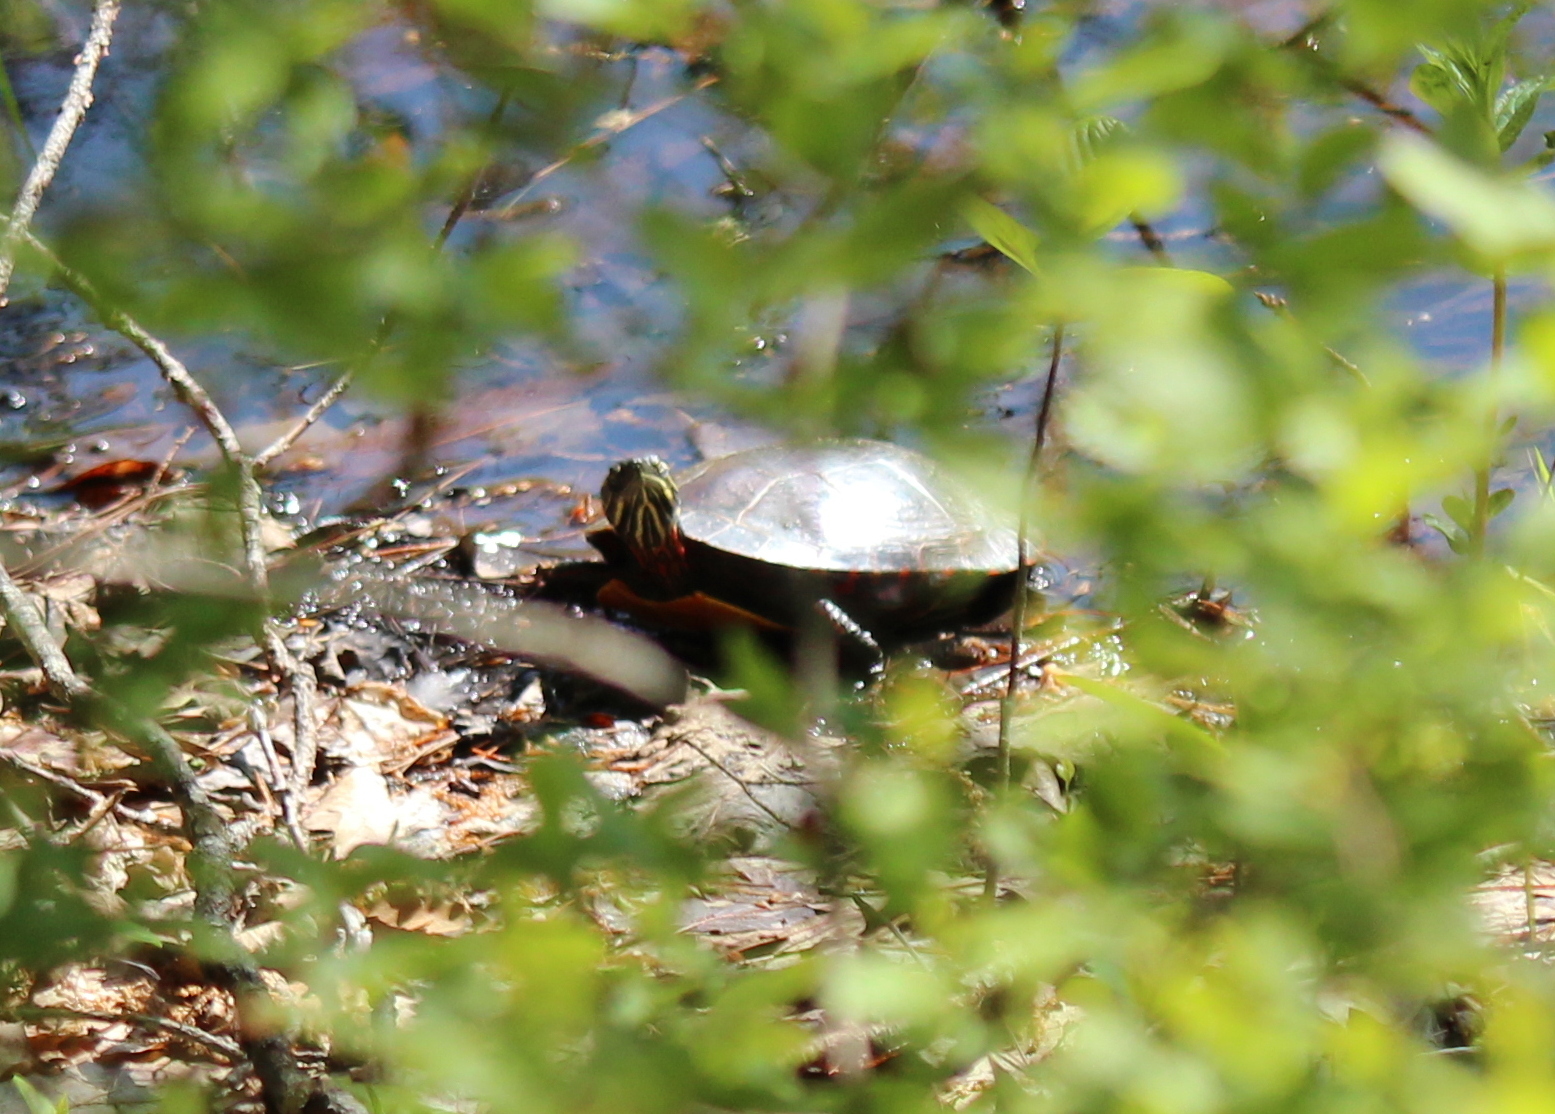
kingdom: Animalia
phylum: Chordata
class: Testudines
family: Emydidae
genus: Chrysemys
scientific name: Chrysemys picta
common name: Painted turtle
